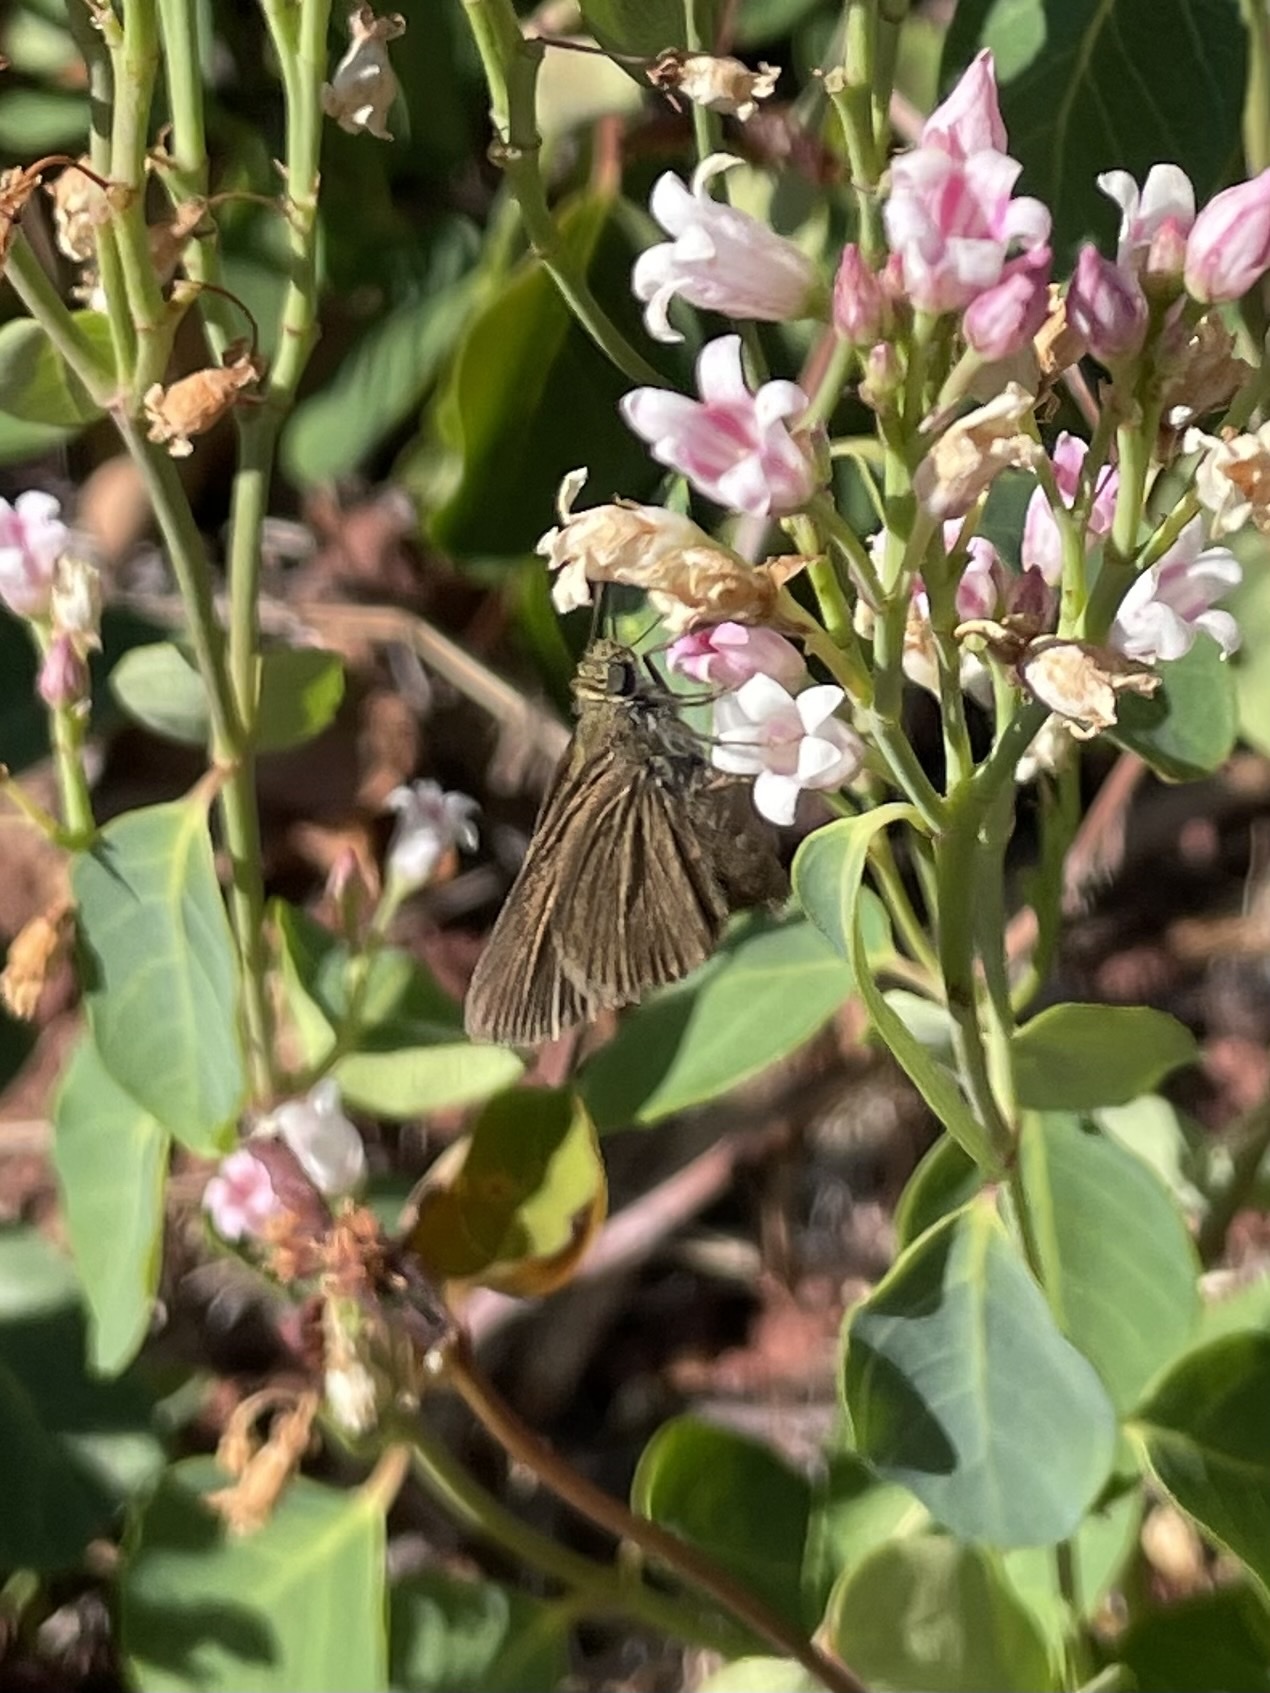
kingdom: Animalia
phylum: Arthropoda
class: Insecta
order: Lepidoptera
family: Hesperiidae
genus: Euphyes
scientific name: Euphyes vestris
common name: Dun skipper
